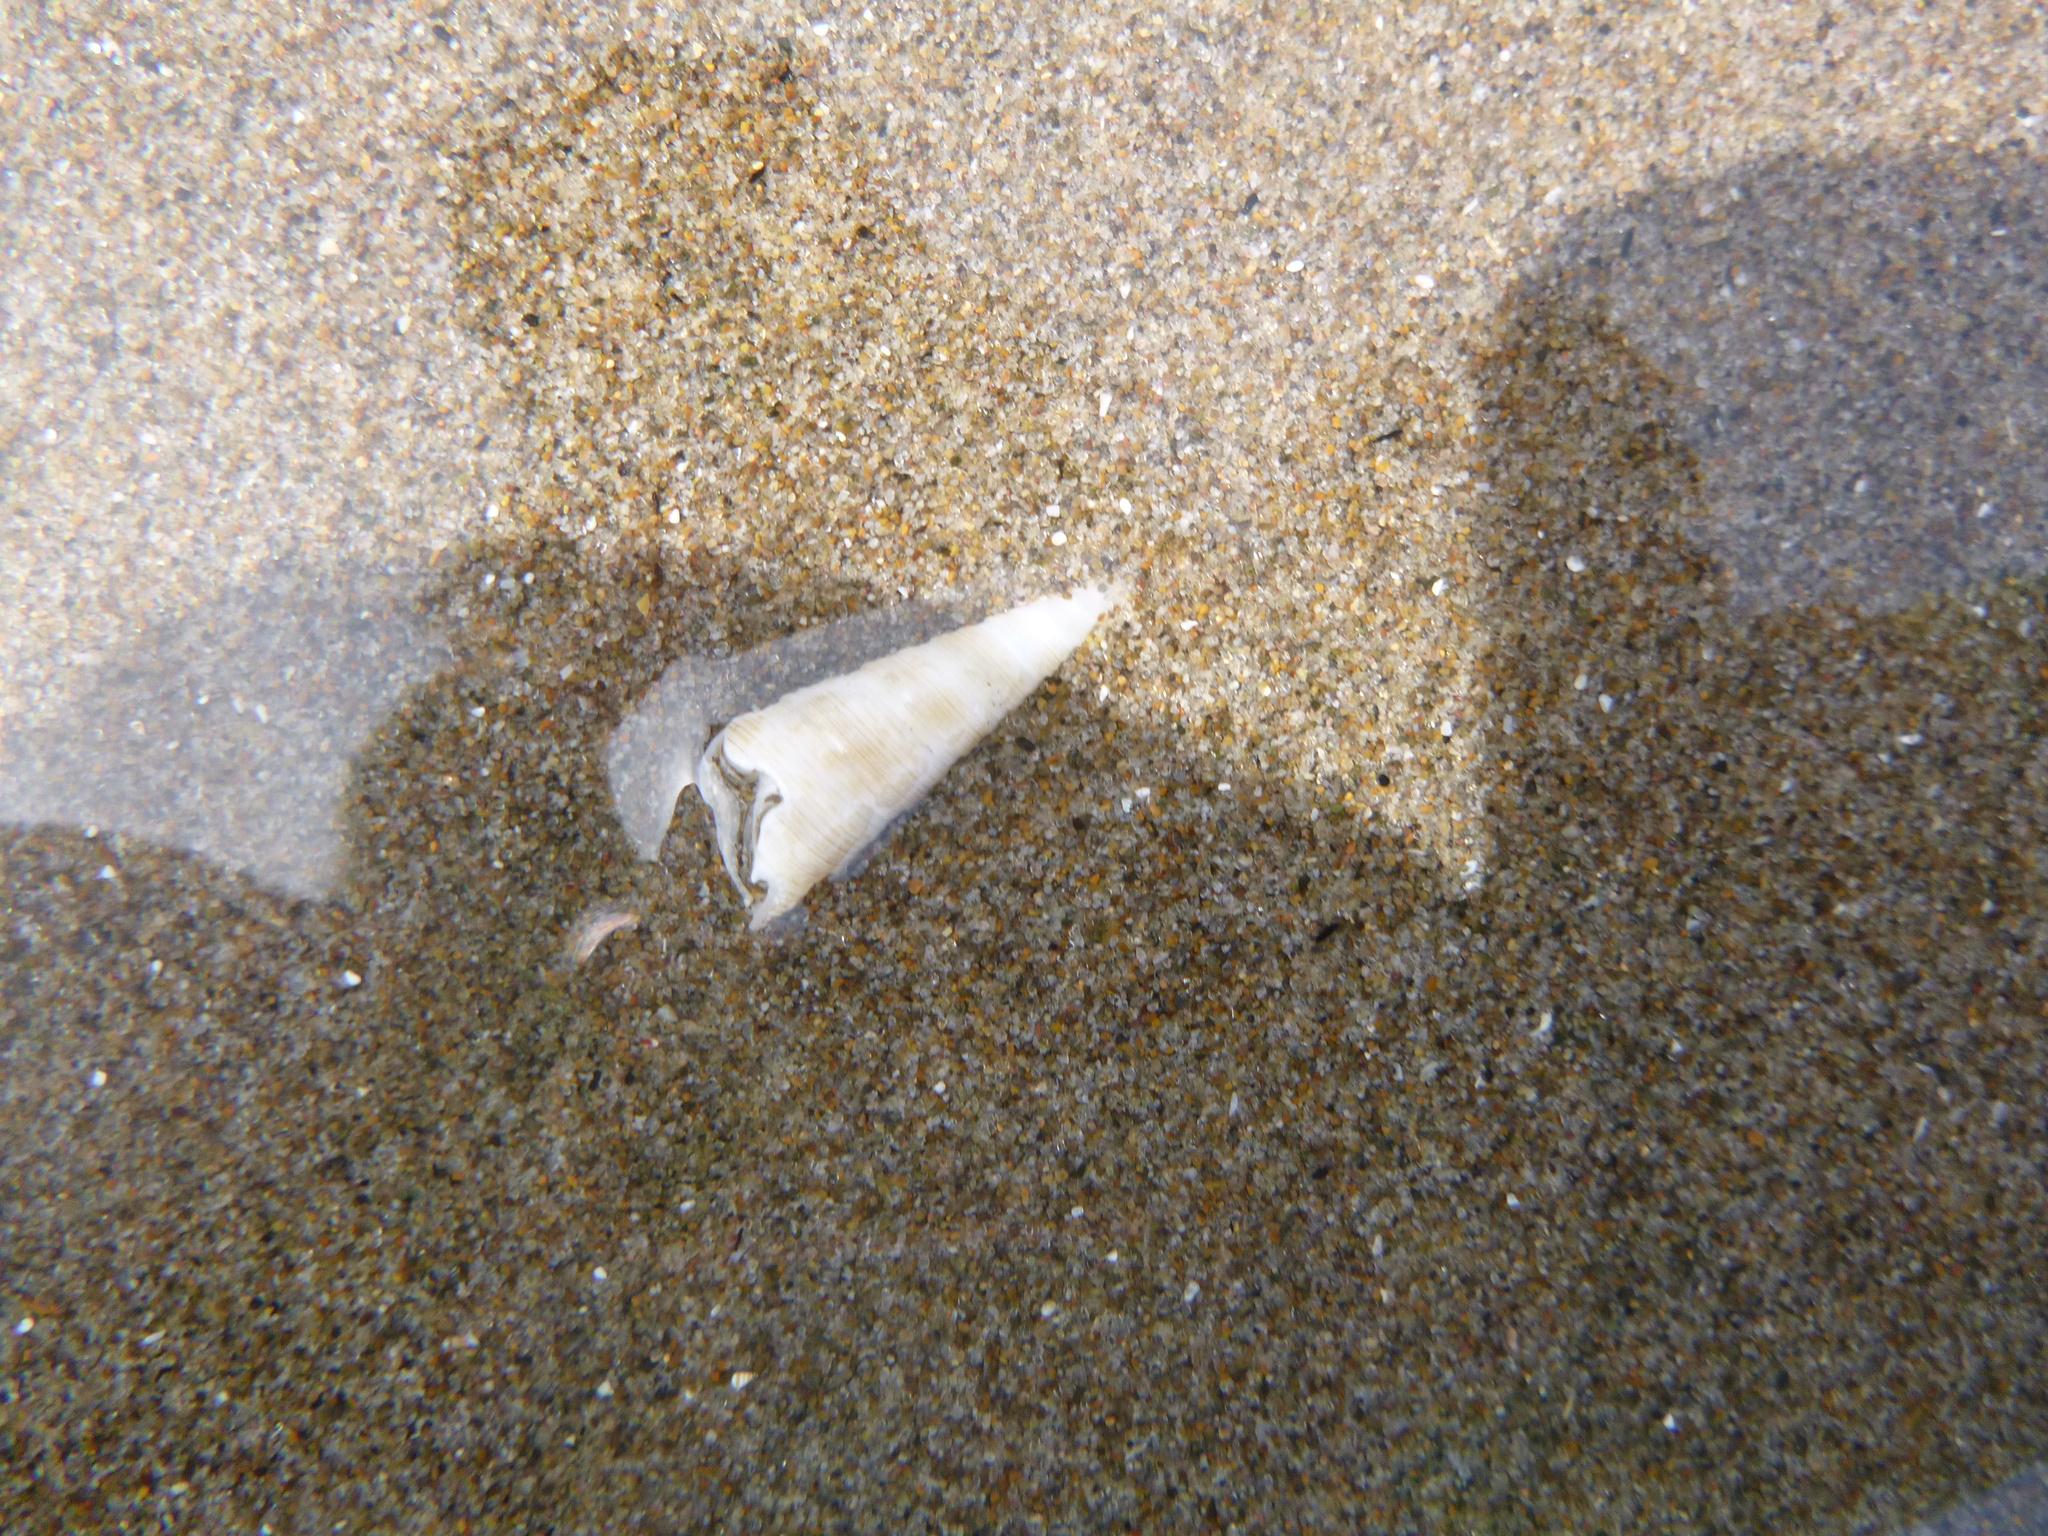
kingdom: Animalia
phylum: Mollusca
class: Gastropoda
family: Turritellidae
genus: Maoricolpus
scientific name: Maoricolpus roseus
